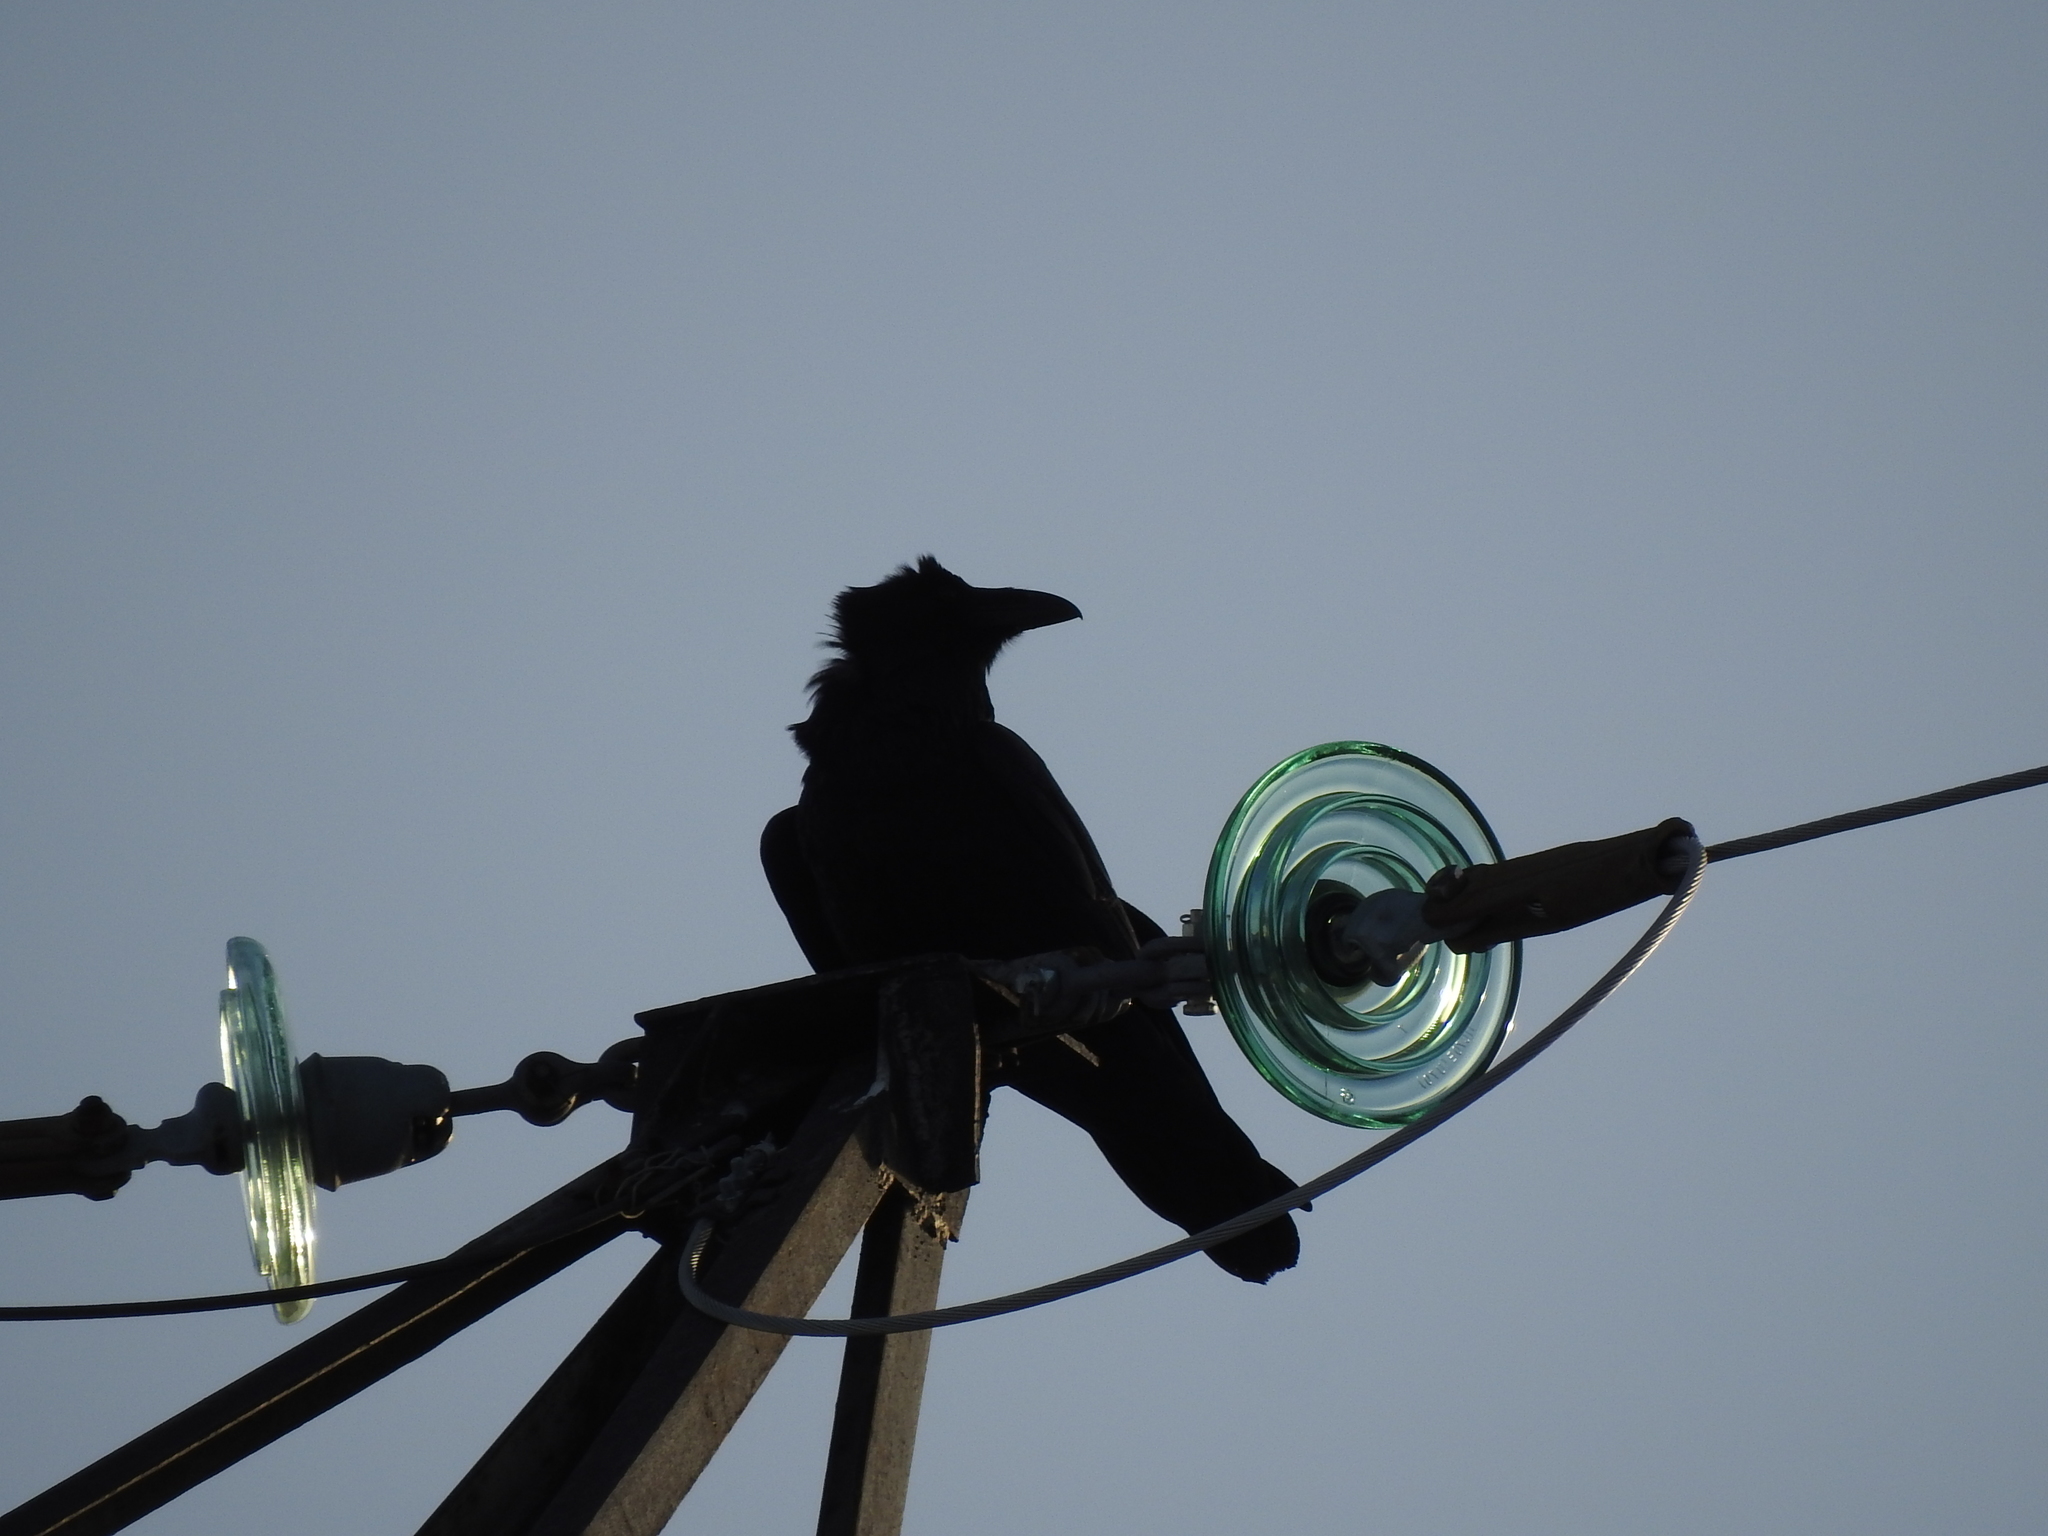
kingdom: Animalia
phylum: Chordata
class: Aves
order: Passeriformes
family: Corvidae
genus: Corvus
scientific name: Corvus corax
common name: Common raven
